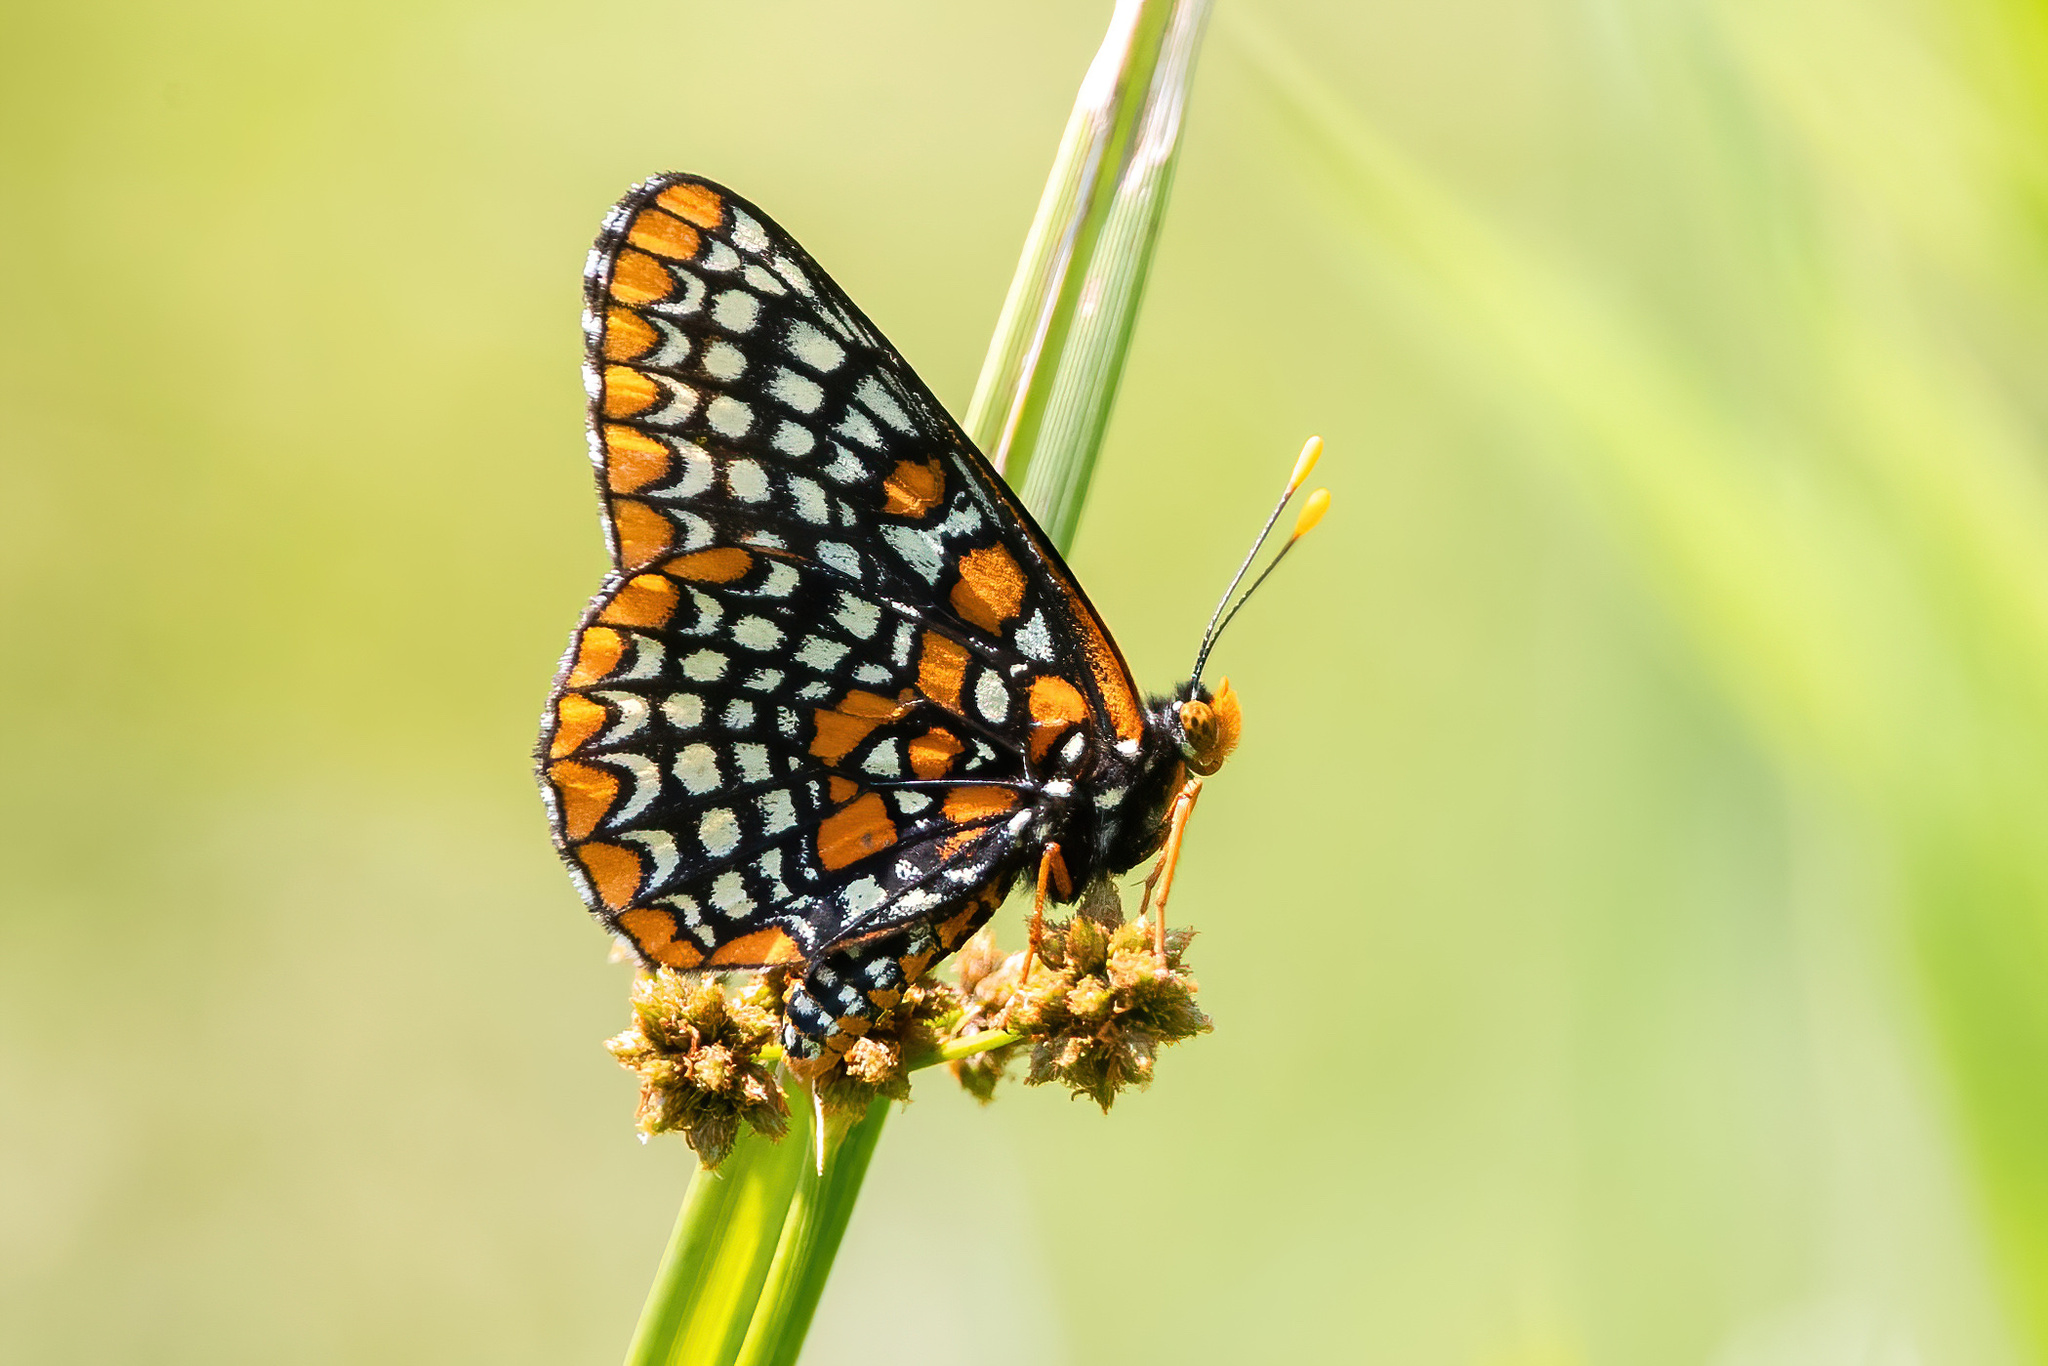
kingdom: Animalia
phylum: Arthropoda
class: Insecta
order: Lepidoptera
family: Nymphalidae
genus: Euphydryas
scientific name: Euphydryas phaeton
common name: Baltimore checkerspot
